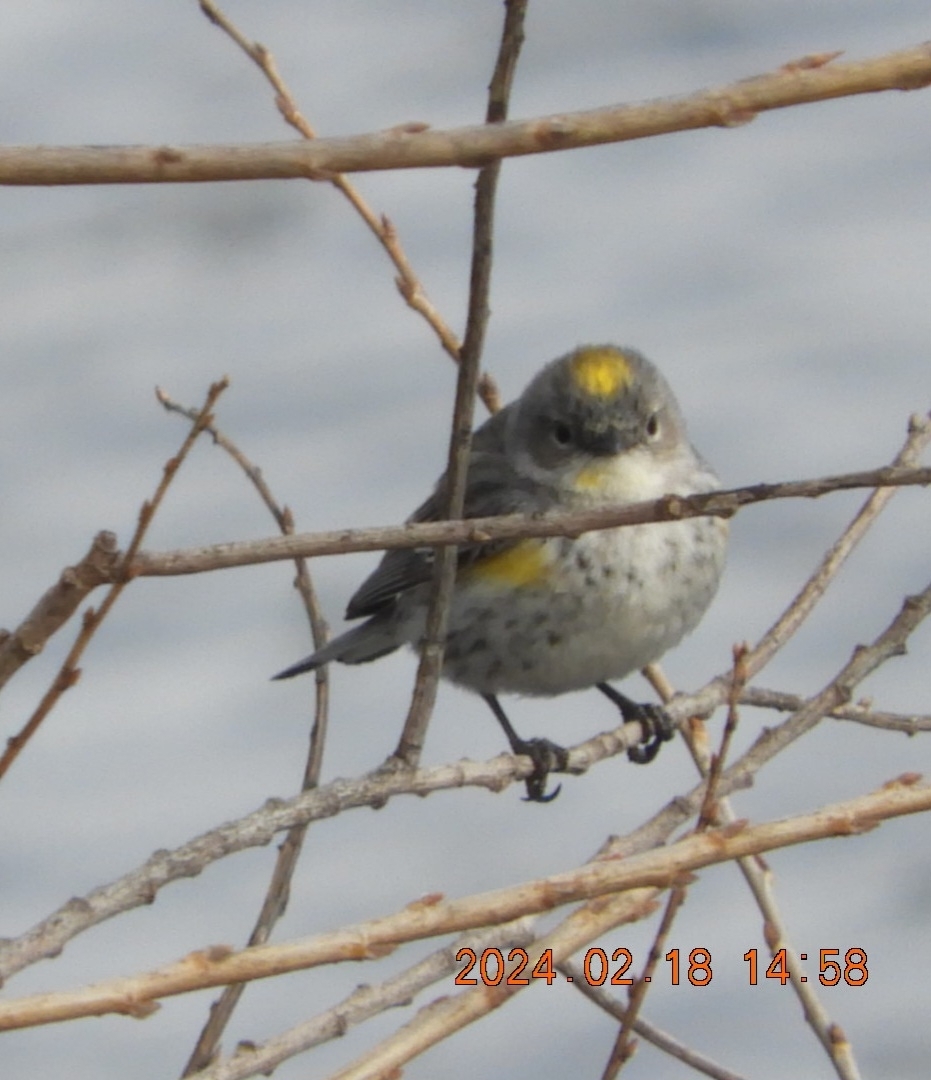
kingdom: Animalia
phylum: Chordata
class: Aves
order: Passeriformes
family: Parulidae
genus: Setophaga
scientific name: Setophaga coronata
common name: Myrtle warbler
